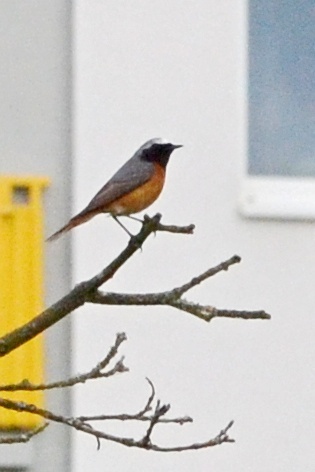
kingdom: Animalia
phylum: Chordata
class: Aves
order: Passeriformes
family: Muscicapidae
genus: Phoenicurus
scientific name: Phoenicurus phoenicurus
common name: Common redstart
